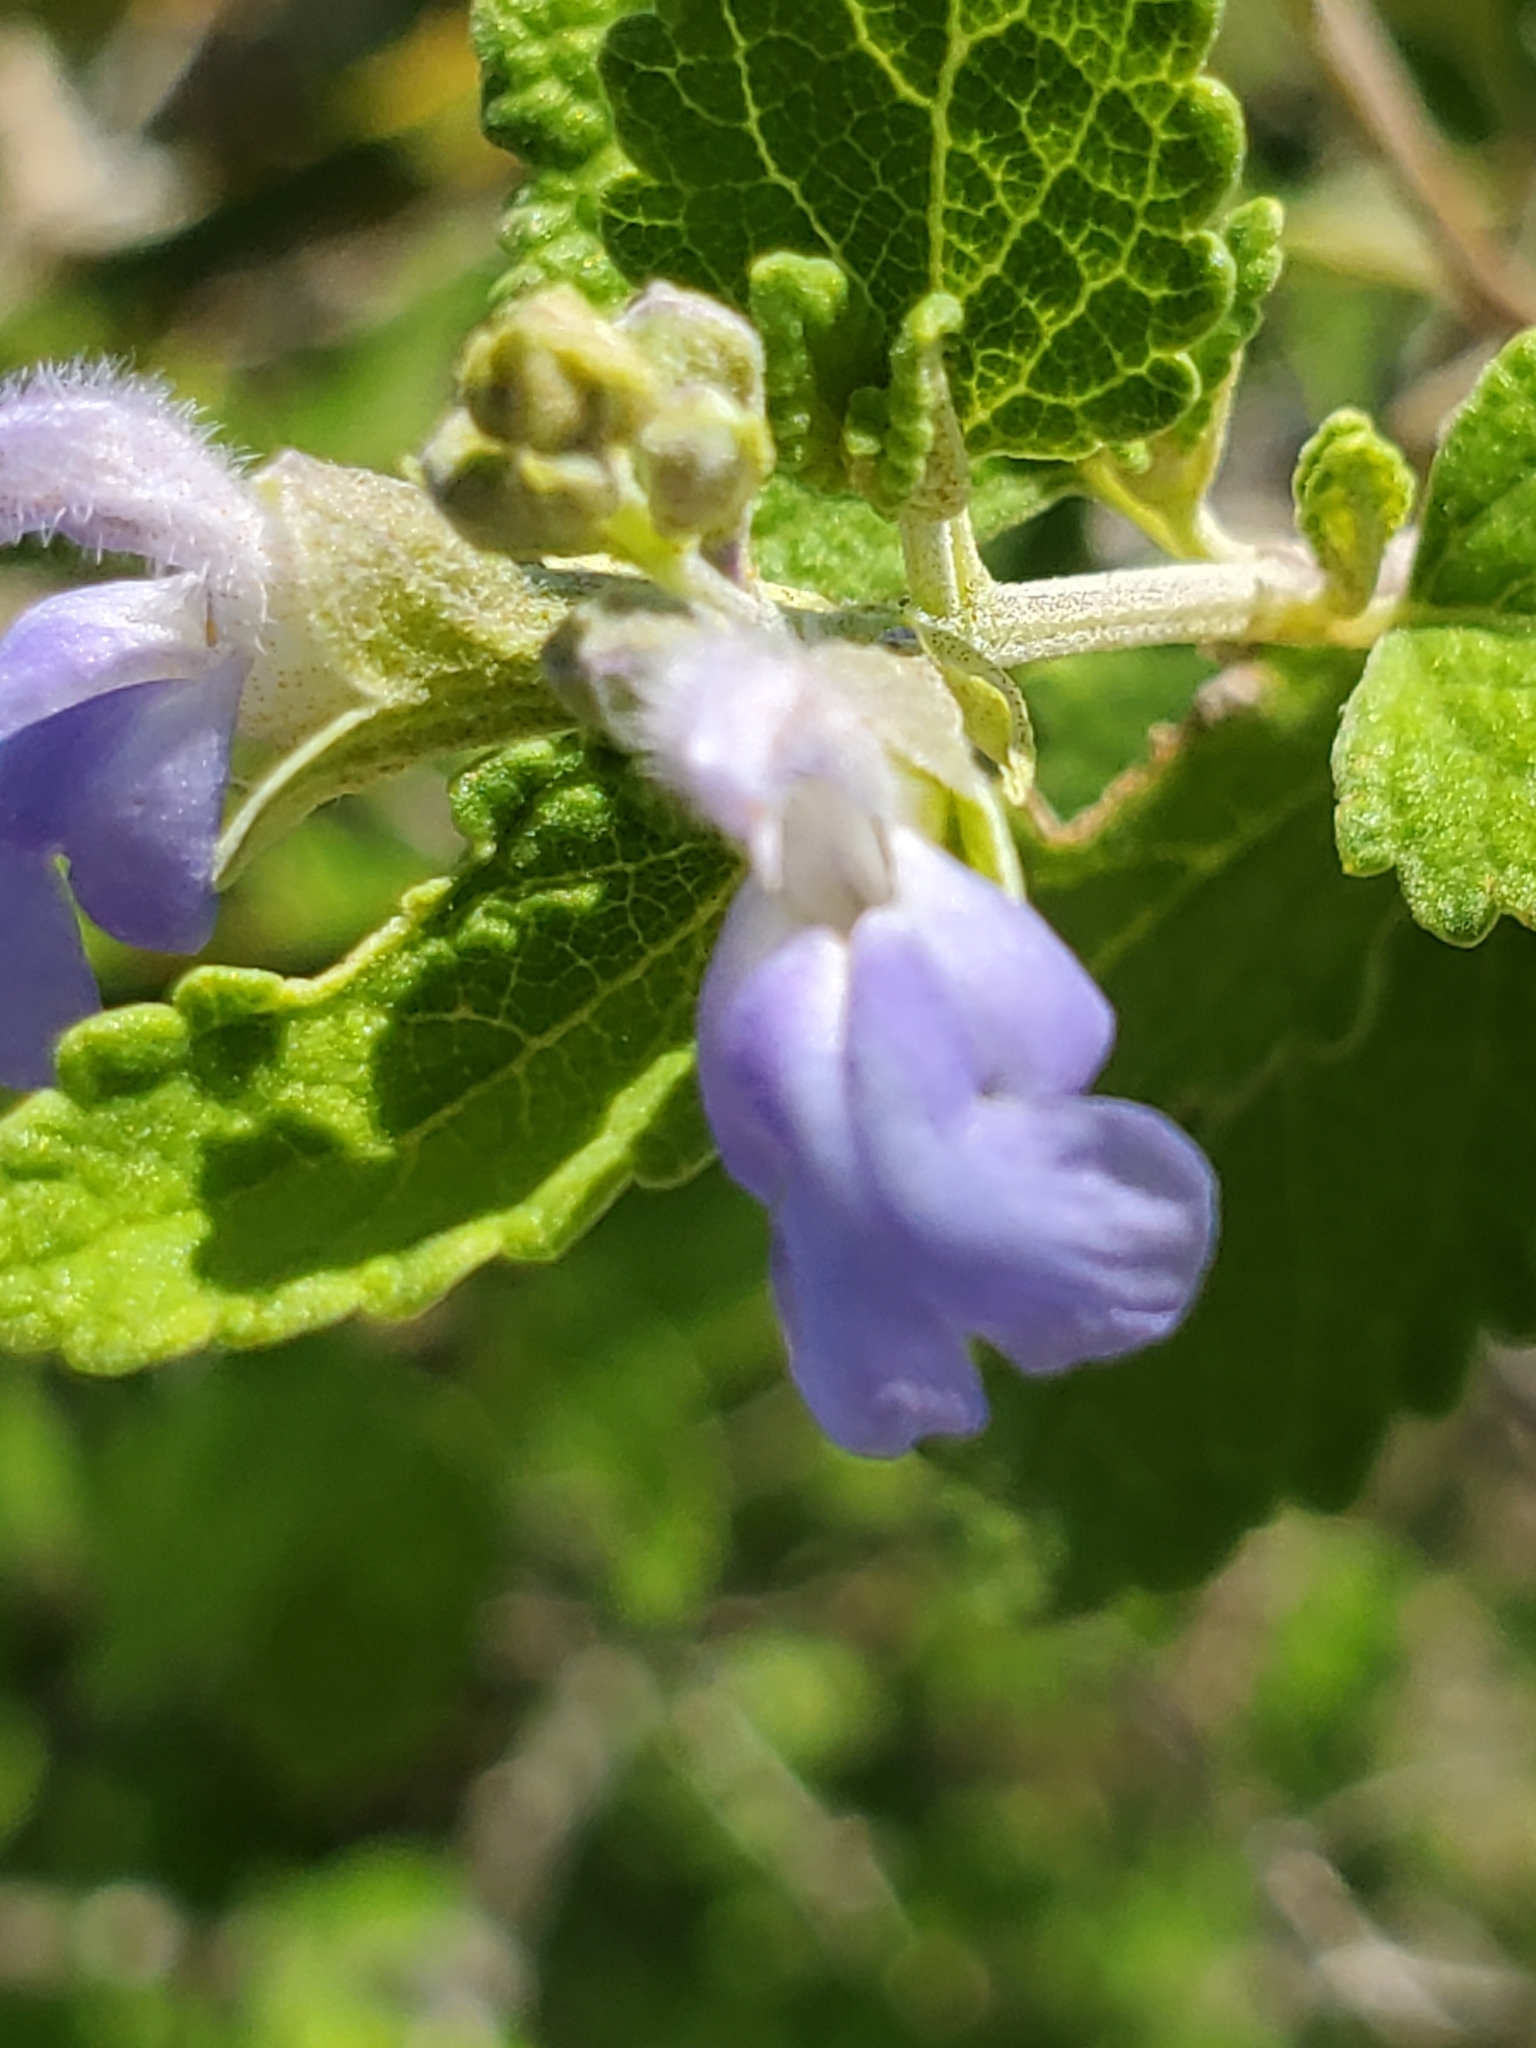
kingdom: Plantae
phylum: Tracheophyta
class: Magnoliopsida
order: Lamiales
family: Lamiaceae
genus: Salvia
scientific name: Salvia ballotiflora
